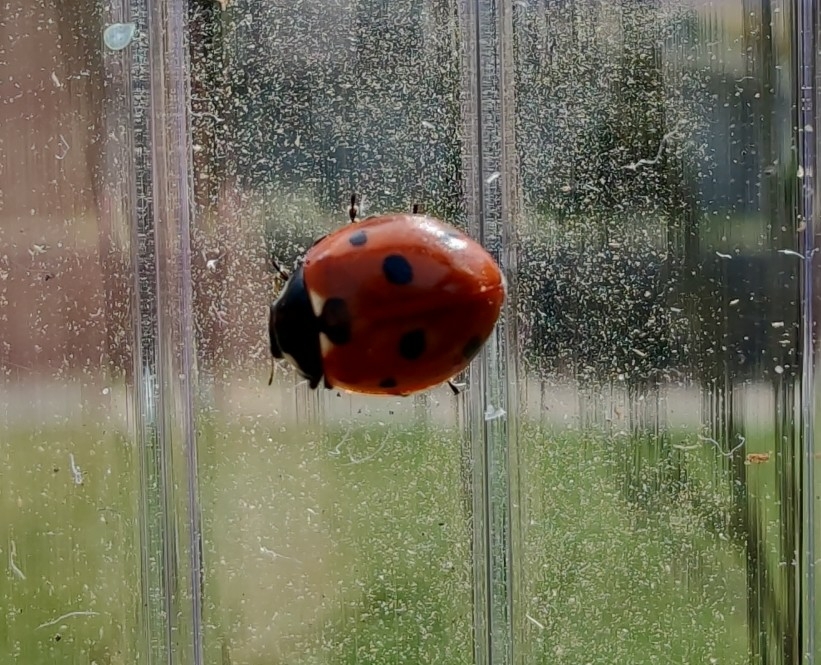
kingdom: Animalia
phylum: Arthropoda
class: Insecta
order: Coleoptera
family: Coccinellidae
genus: Coccinella
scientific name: Coccinella septempunctata
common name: Sevenspotted lady beetle
